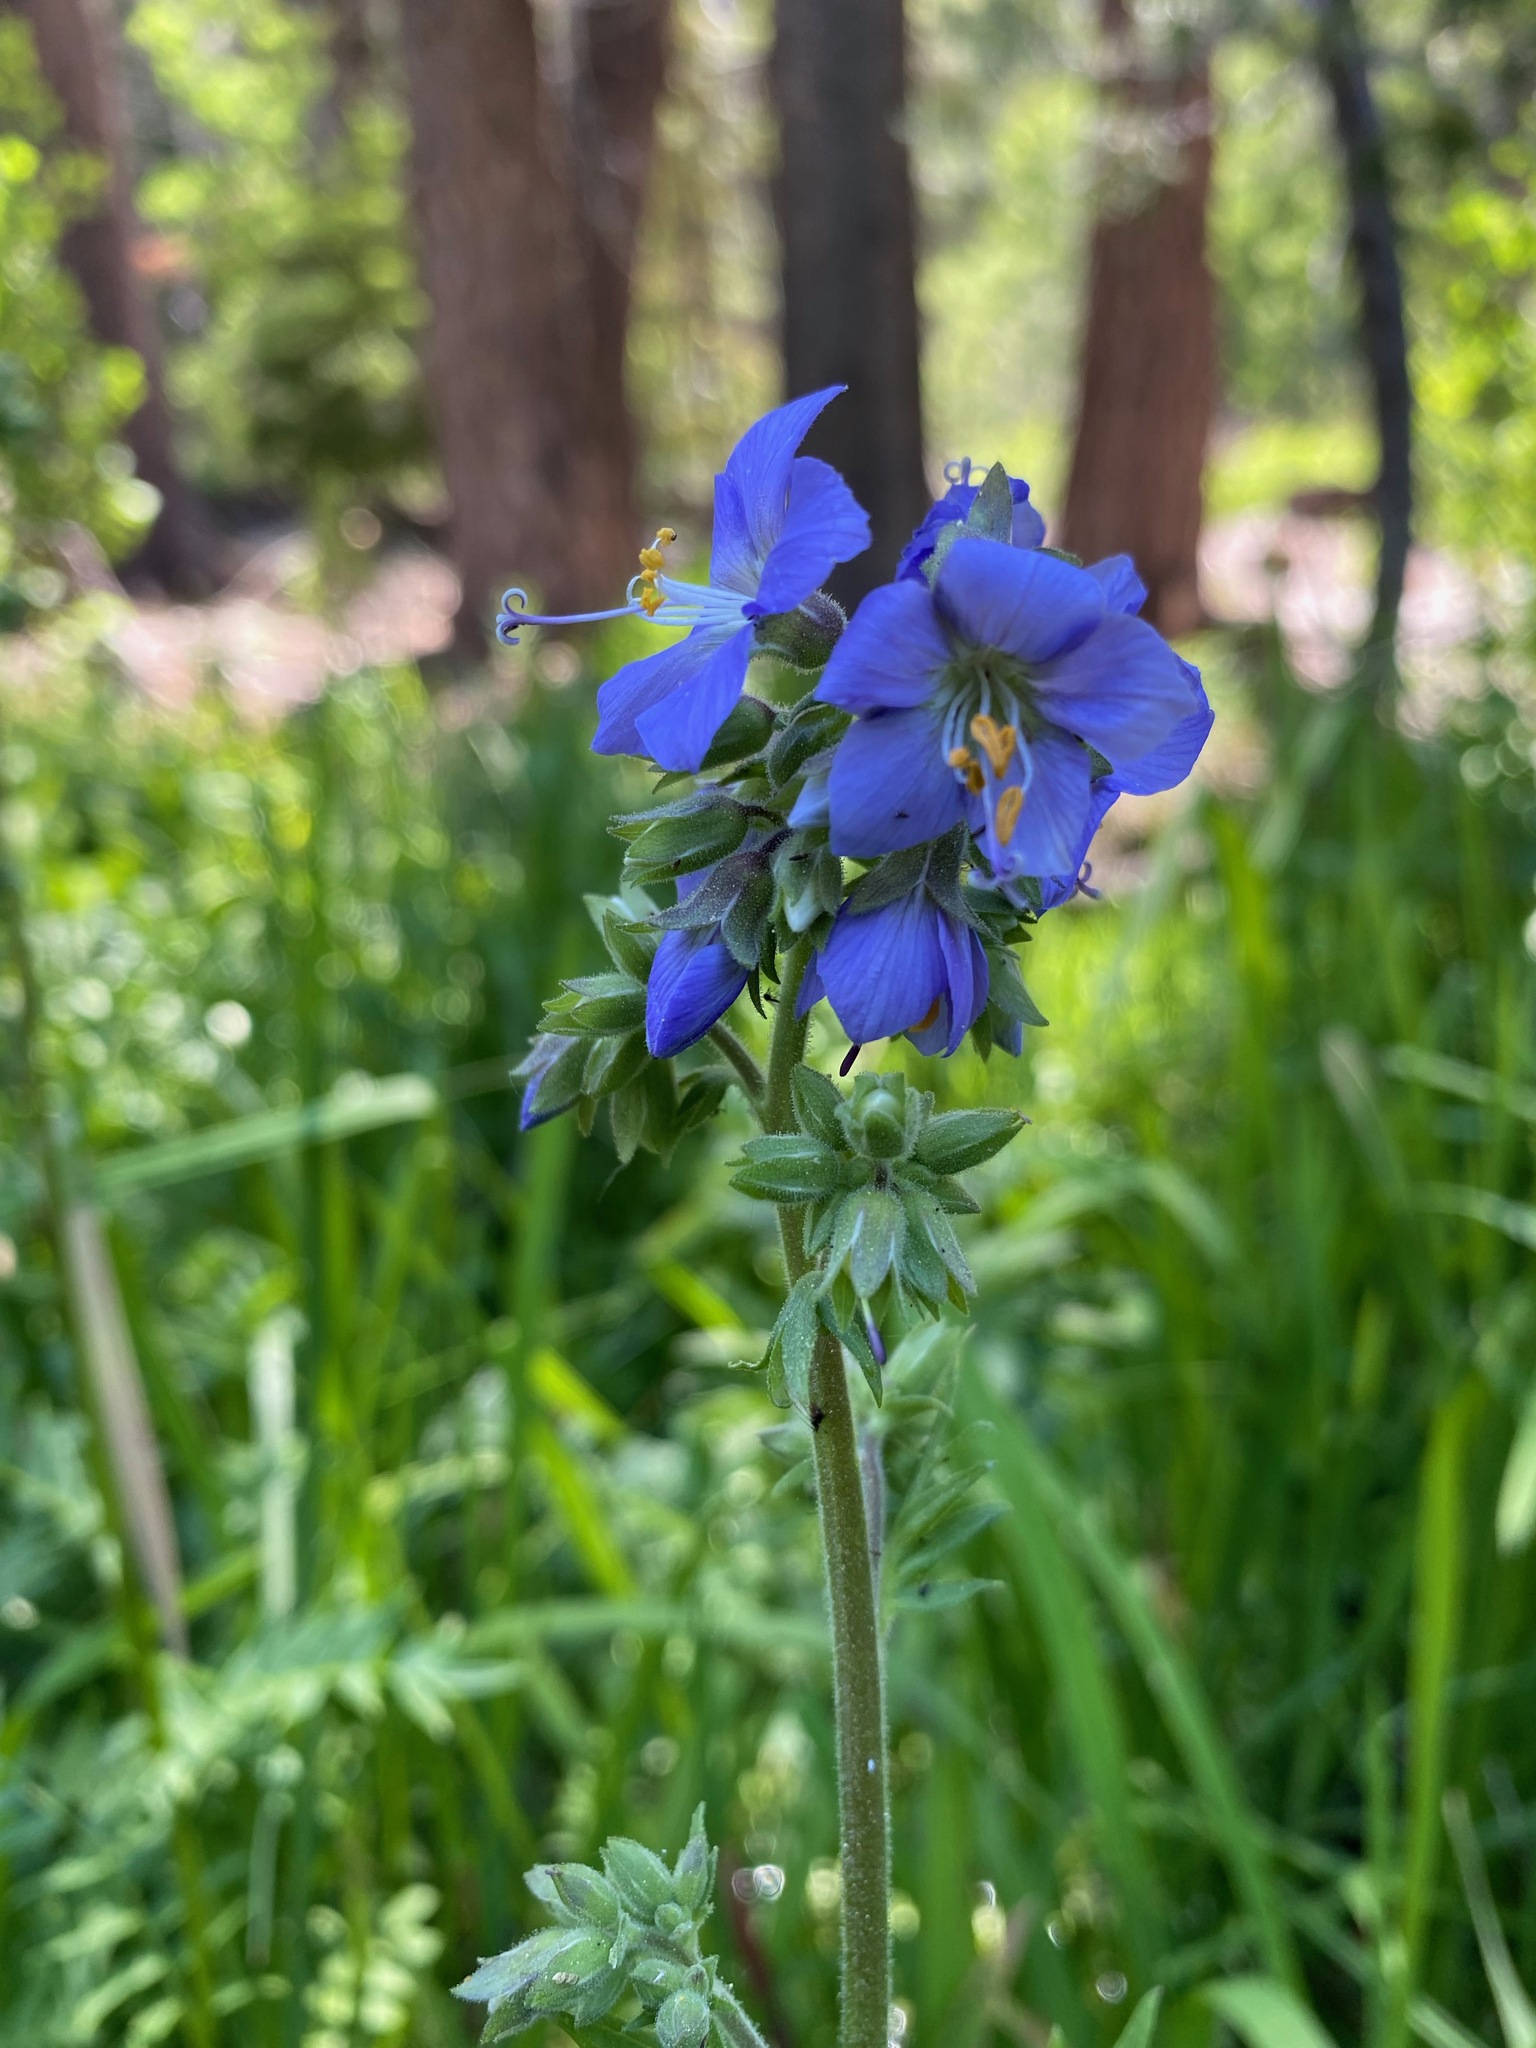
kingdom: Plantae
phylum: Tracheophyta
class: Magnoliopsida
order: Ericales
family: Polemoniaceae
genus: Polemonium
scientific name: Polemonium occidentale
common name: Western jacob's-ladder
